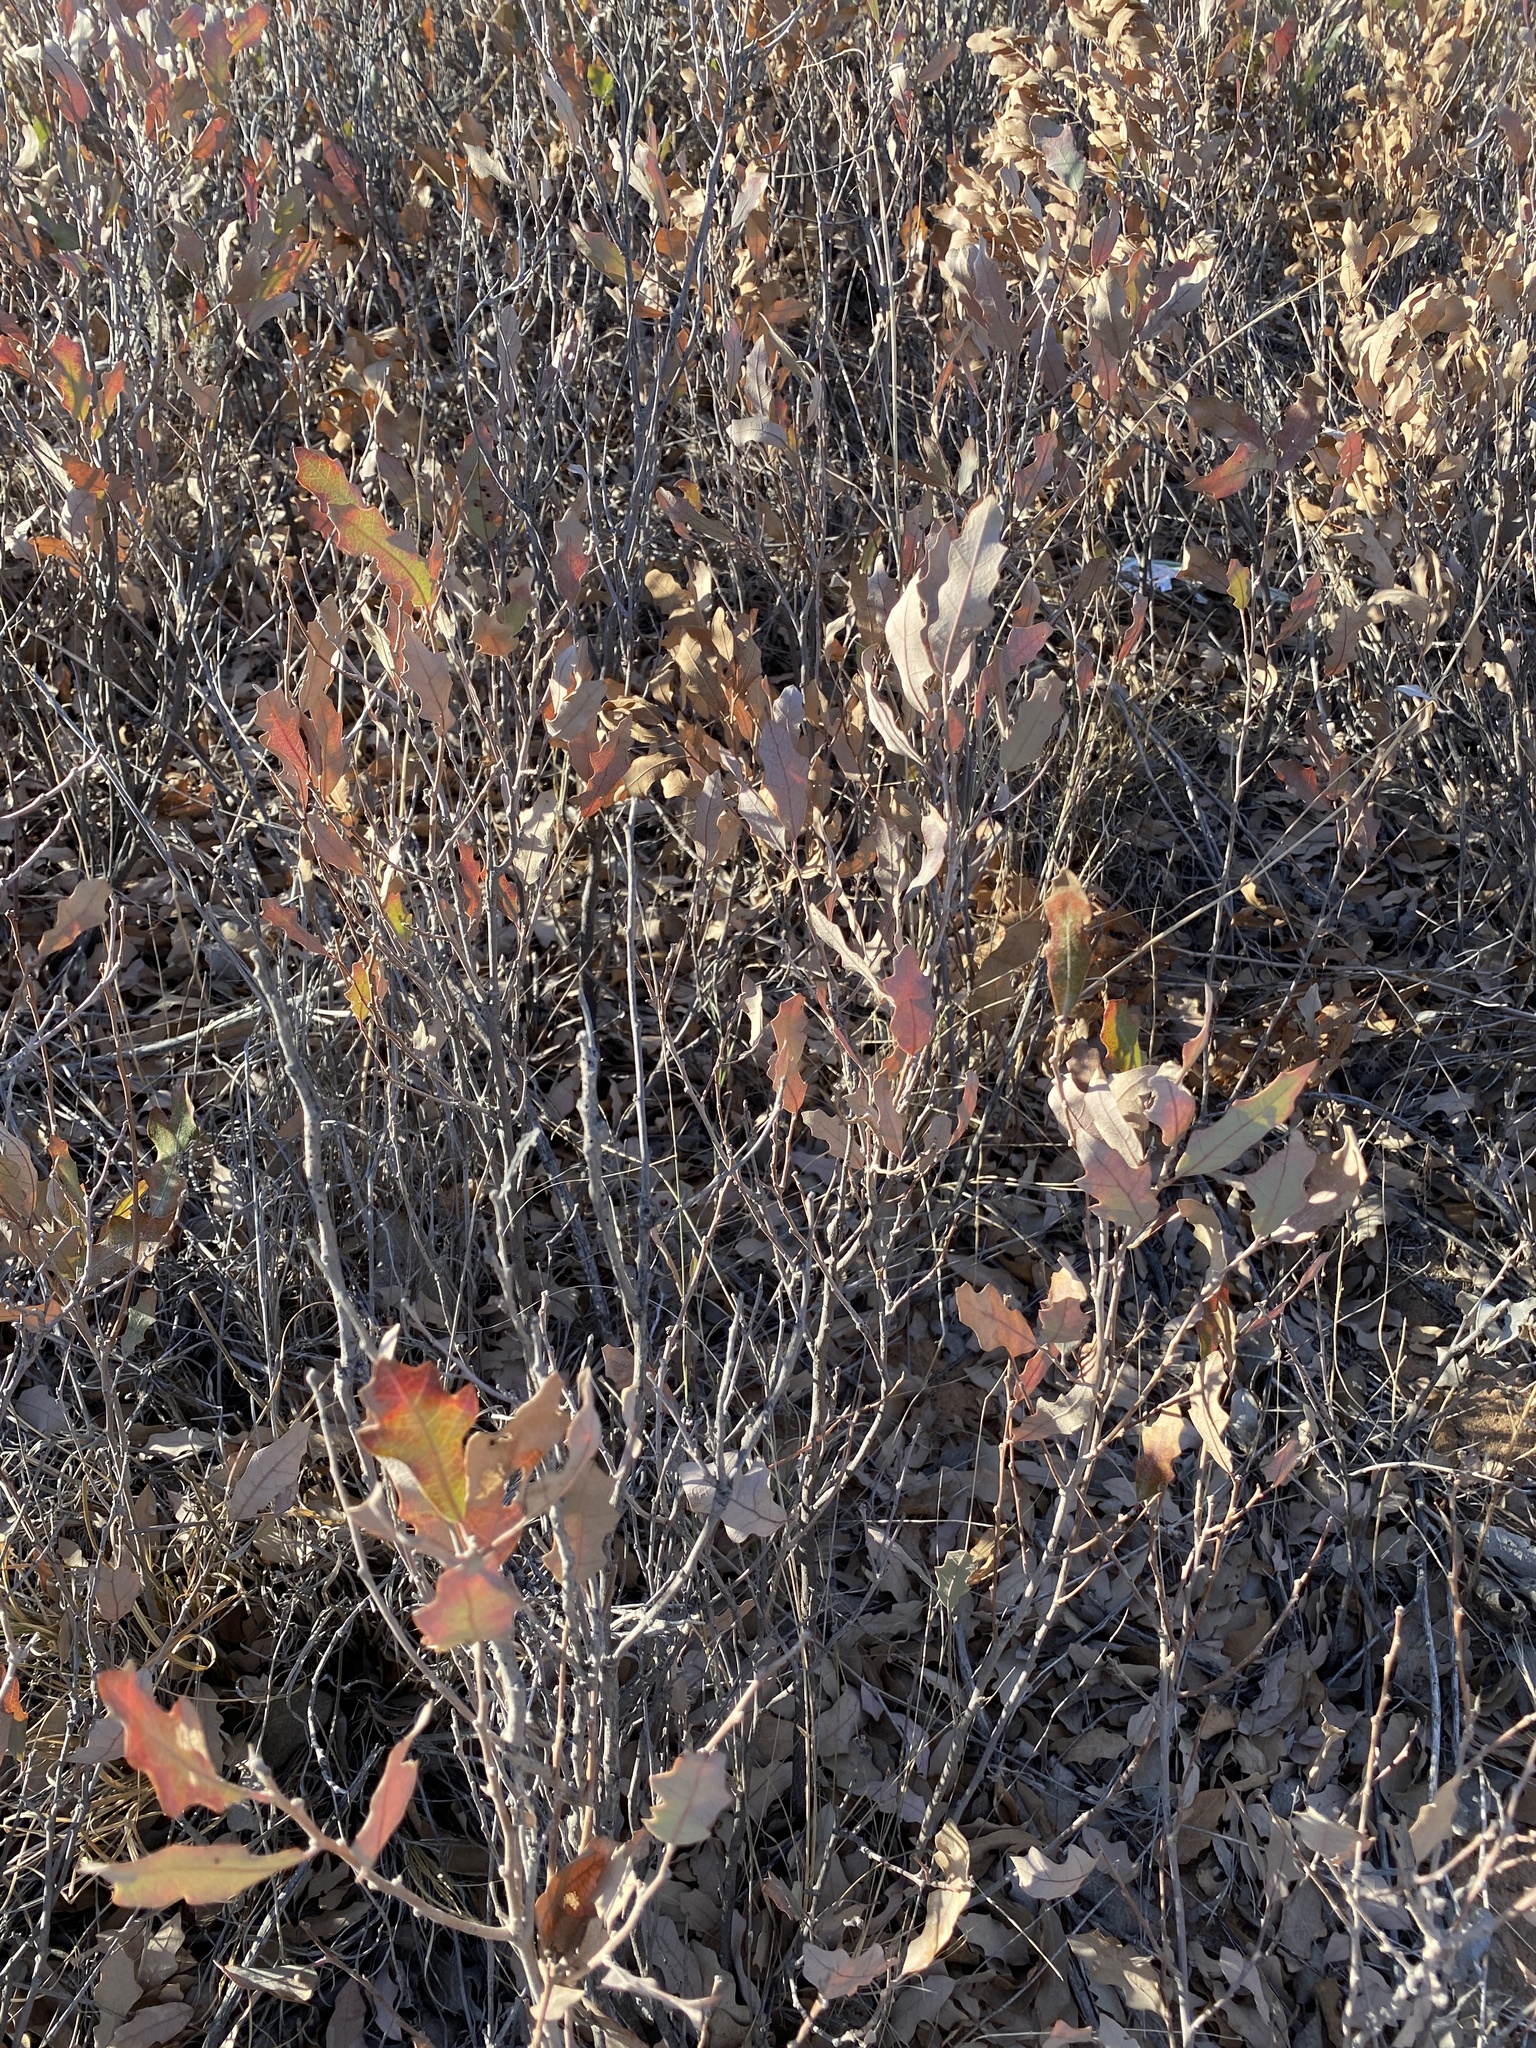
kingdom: Plantae
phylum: Tracheophyta
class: Magnoliopsida
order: Fagales
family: Fagaceae
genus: Quercus
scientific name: Quercus havardii
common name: Shinnery oak
